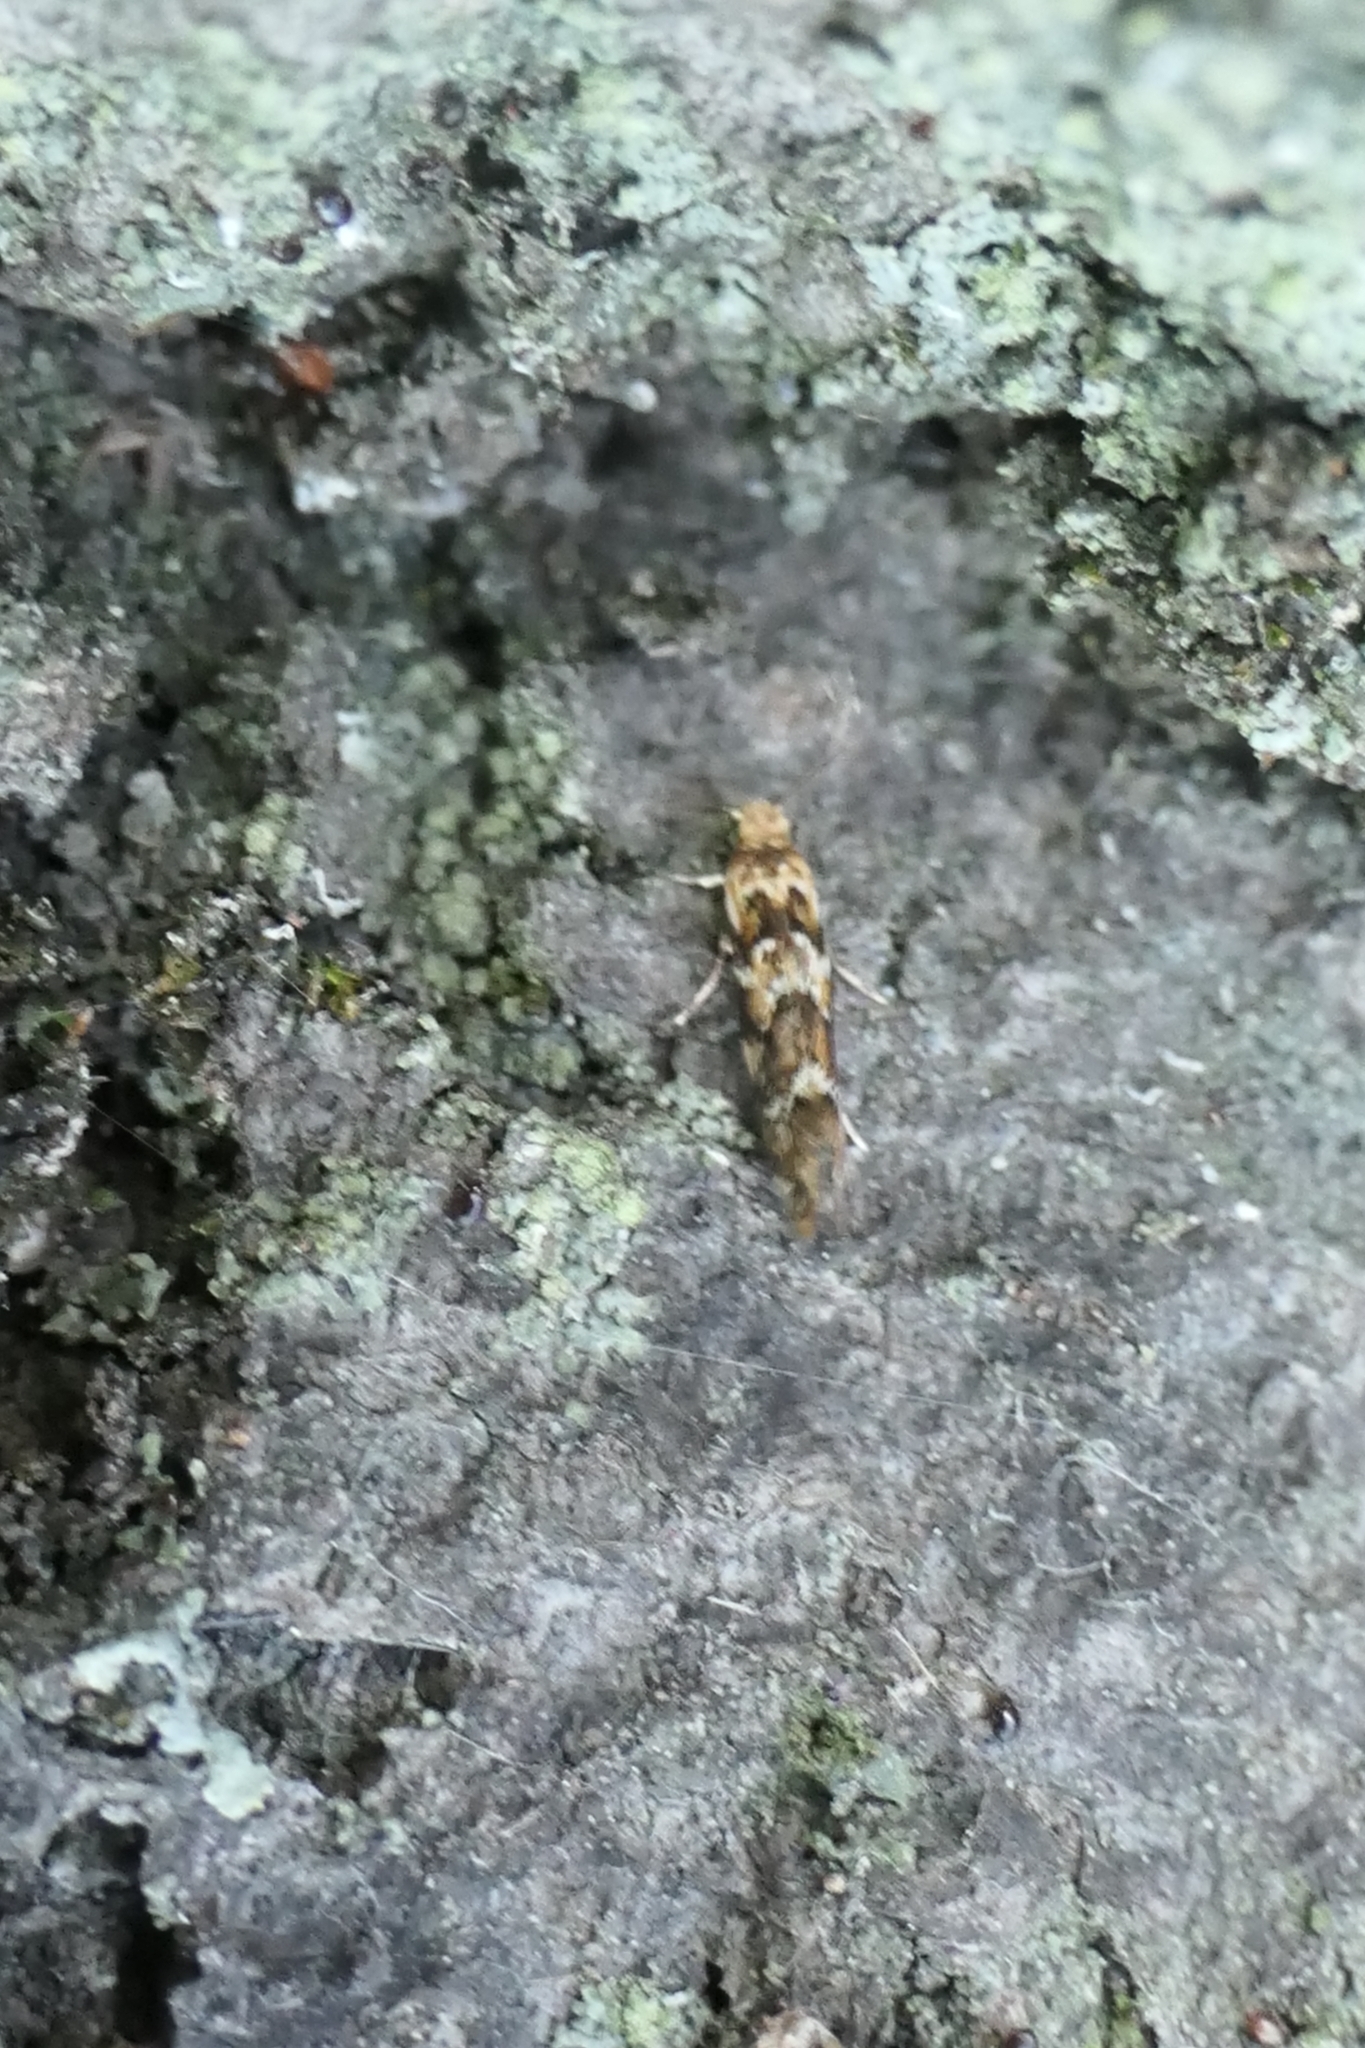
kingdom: Animalia
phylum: Arthropoda
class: Insecta
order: Lepidoptera
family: Dryadaulidae
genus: Dryadaula
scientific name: Dryadaula pactolia
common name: Cellar clothes
